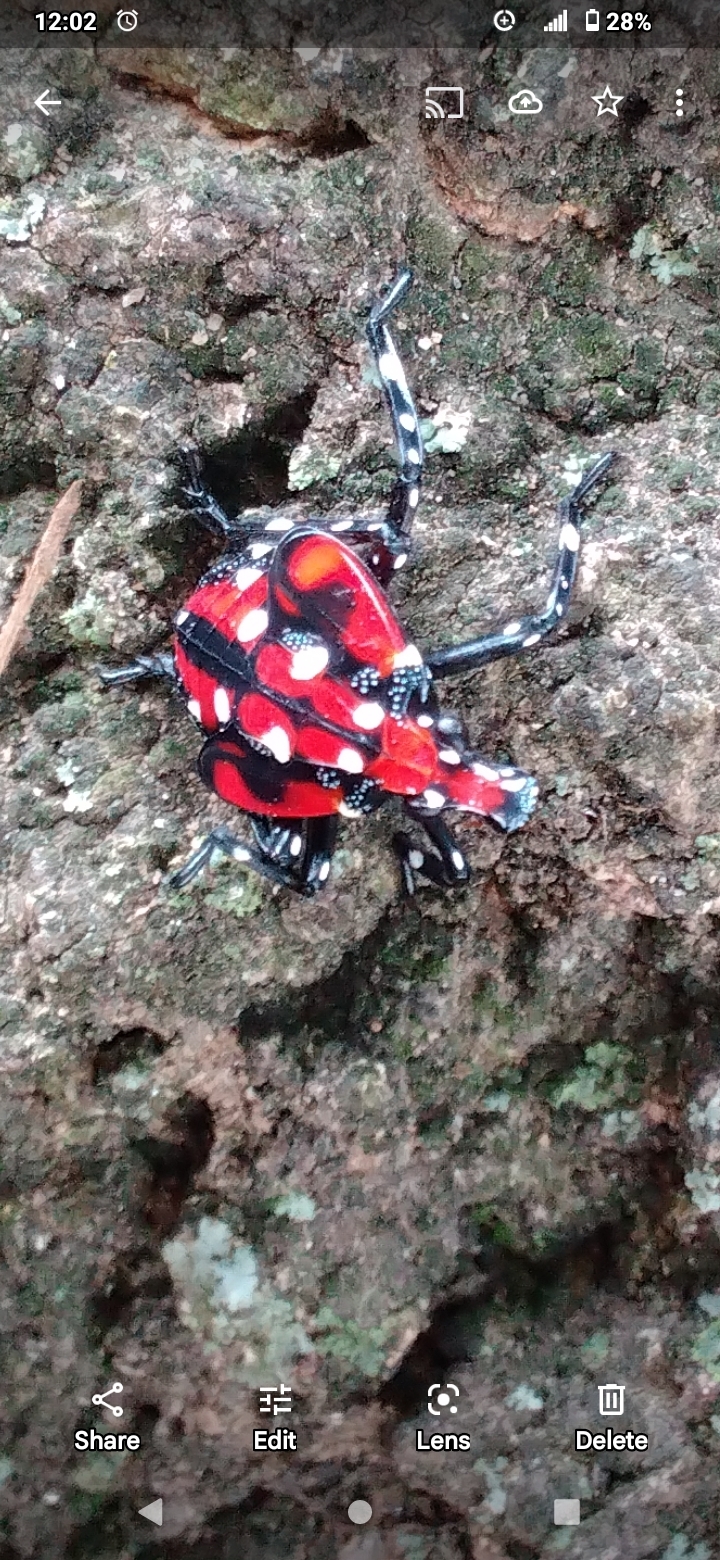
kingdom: Animalia
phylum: Arthropoda
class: Insecta
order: Hemiptera
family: Fulgoridae
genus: Lycorma
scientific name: Lycorma delicatula
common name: Spotted lanternfly
